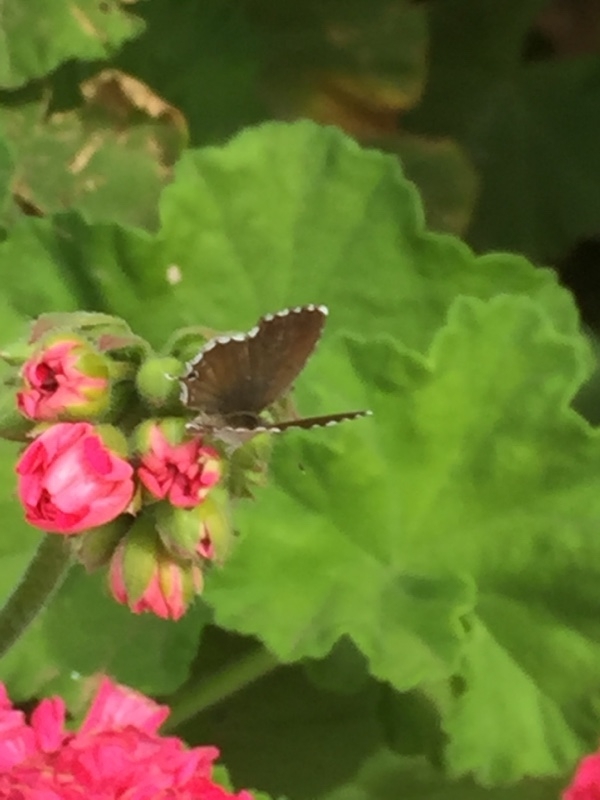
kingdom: Animalia
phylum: Arthropoda
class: Insecta
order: Lepidoptera
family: Lycaenidae
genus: Cacyreus
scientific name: Cacyreus marshalli
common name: Geranium bronze
